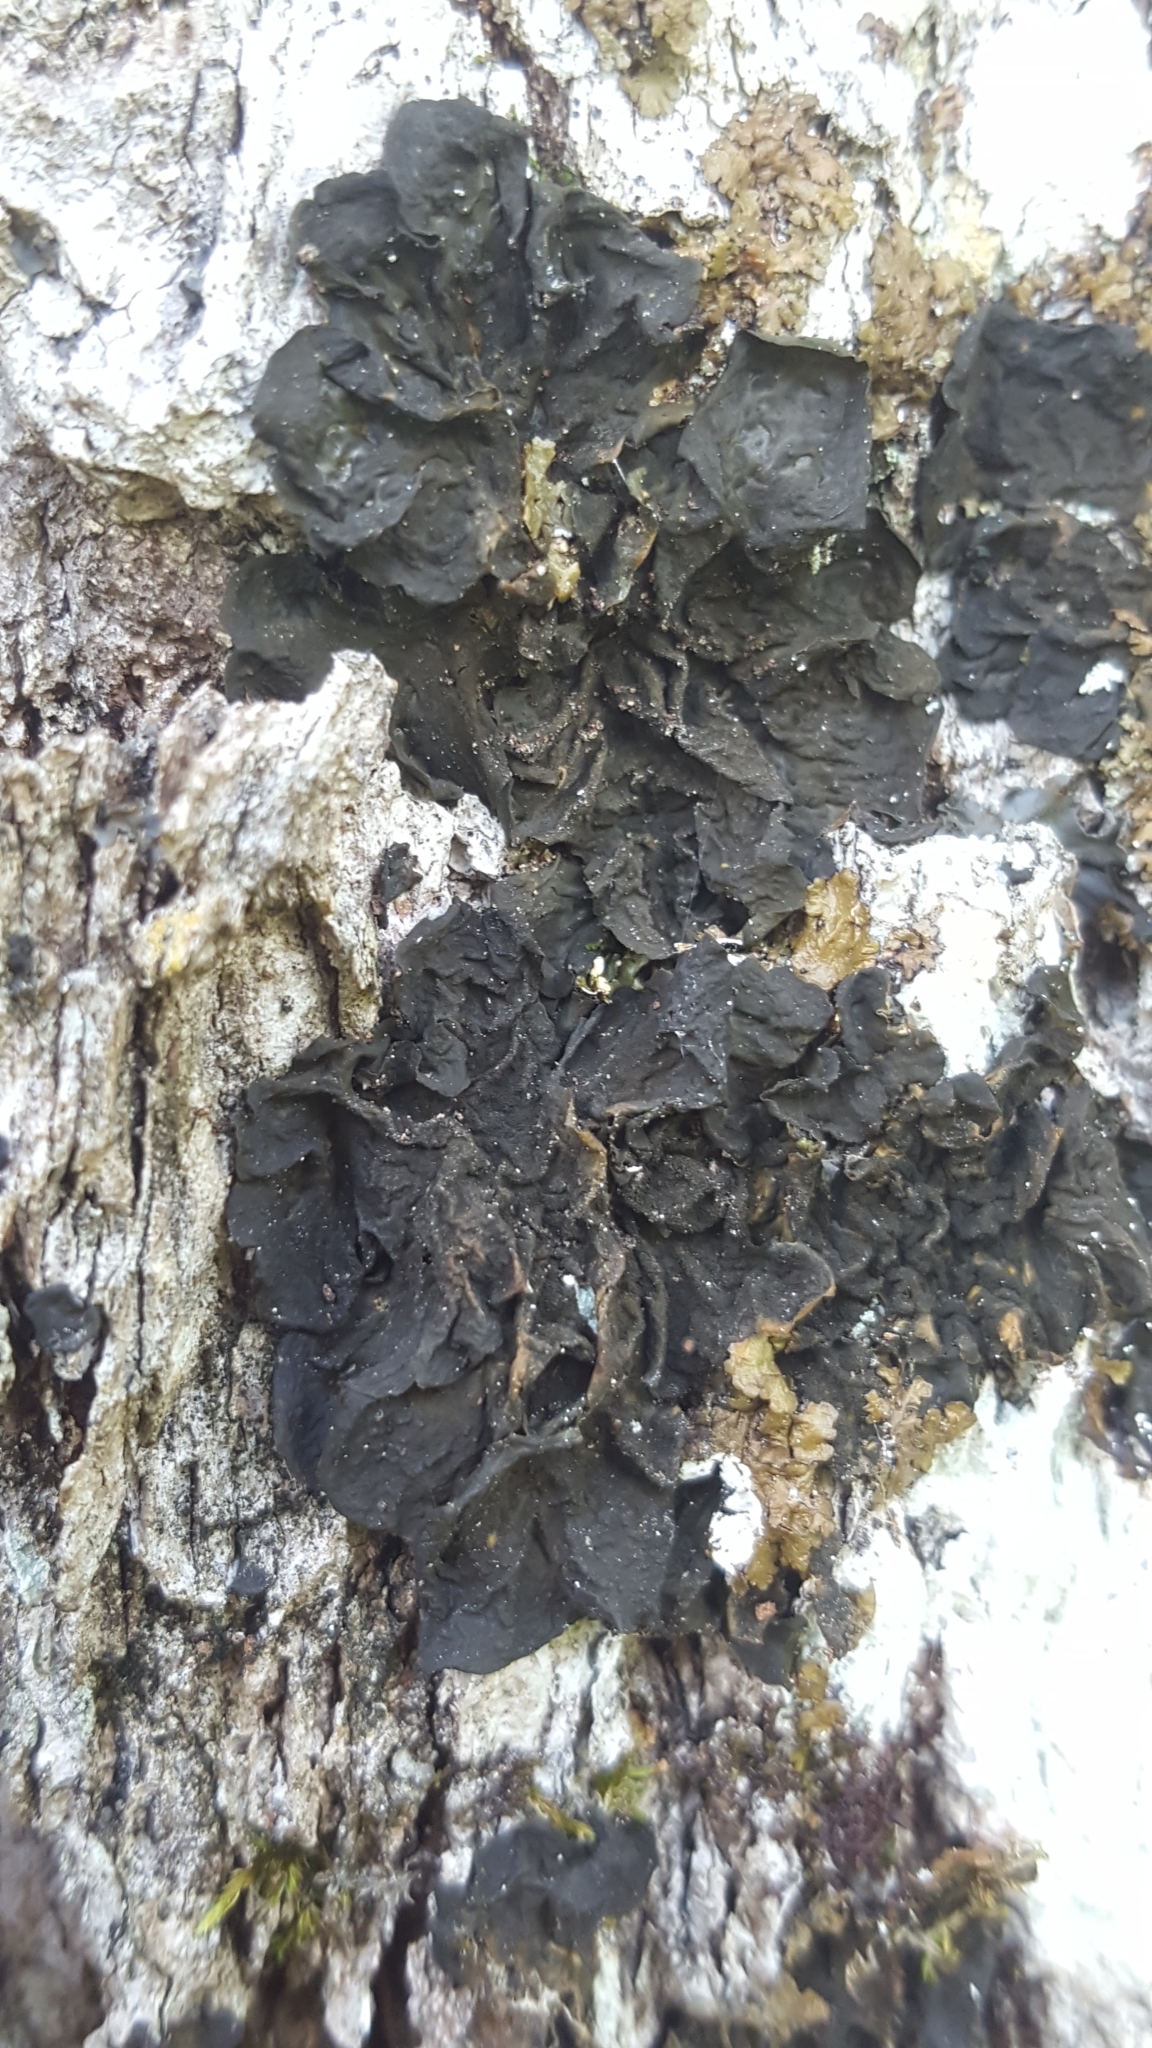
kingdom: Fungi
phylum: Ascomycota
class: Lecanoromycetes
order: Peltigerales
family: Collemataceae
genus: Collema
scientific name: Collema subflaccidum
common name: Tree jelly
